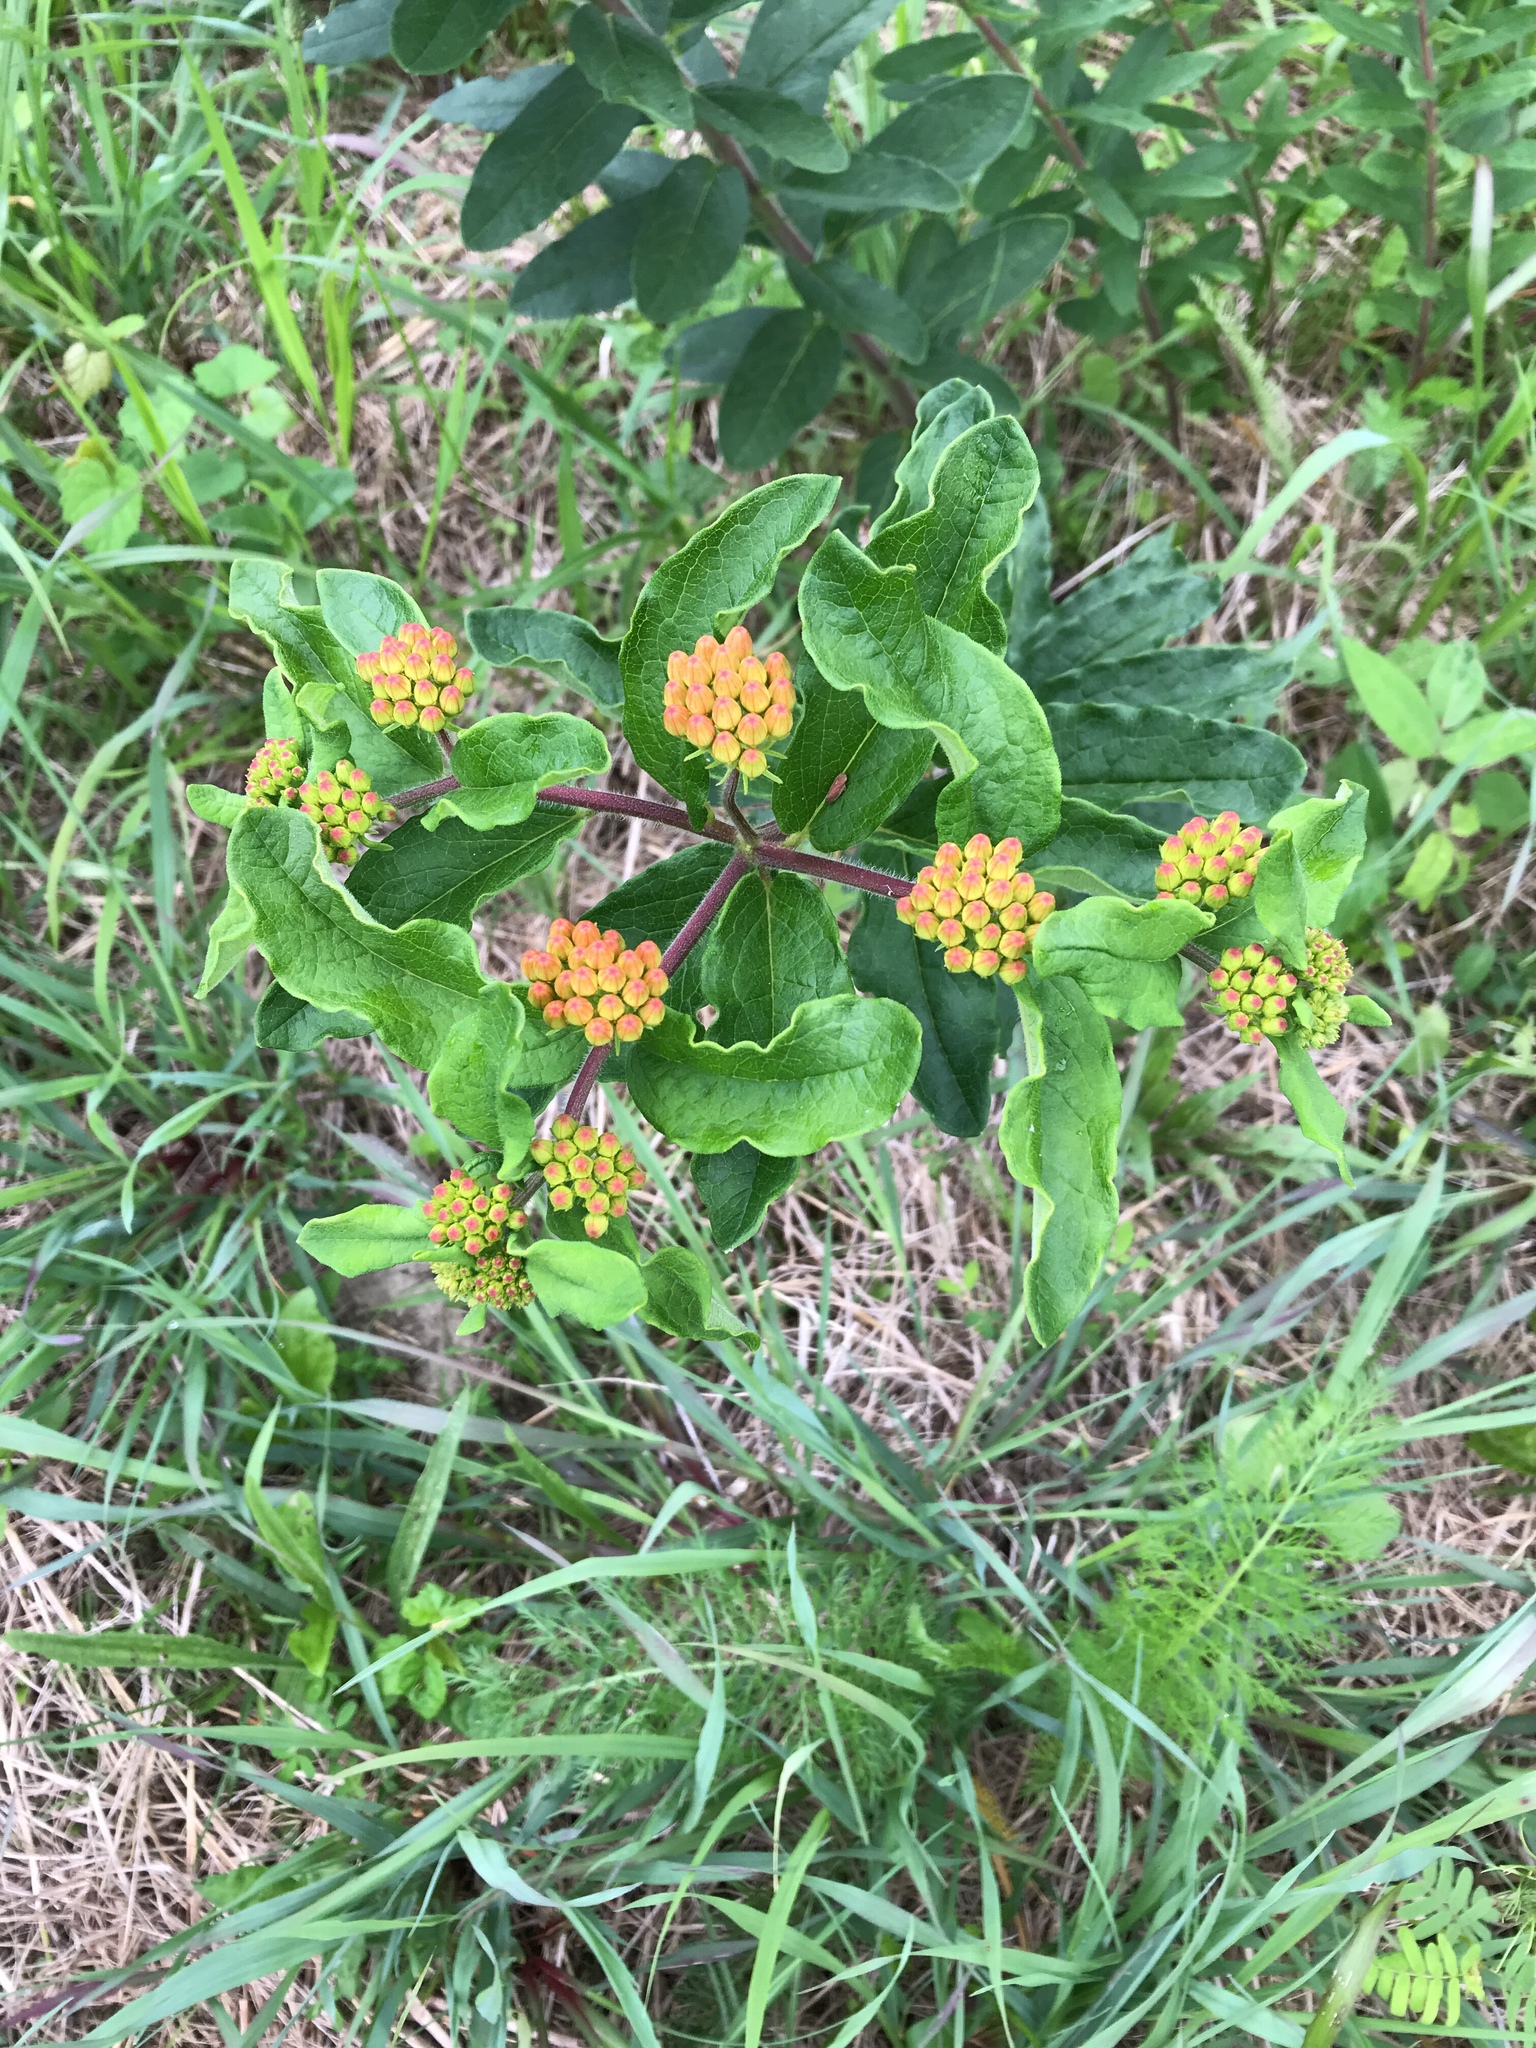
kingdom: Plantae
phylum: Tracheophyta
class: Magnoliopsida
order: Gentianales
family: Apocynaceae
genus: Asclepias
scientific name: Asclepias tuberosa
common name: Butterfly milkweed
